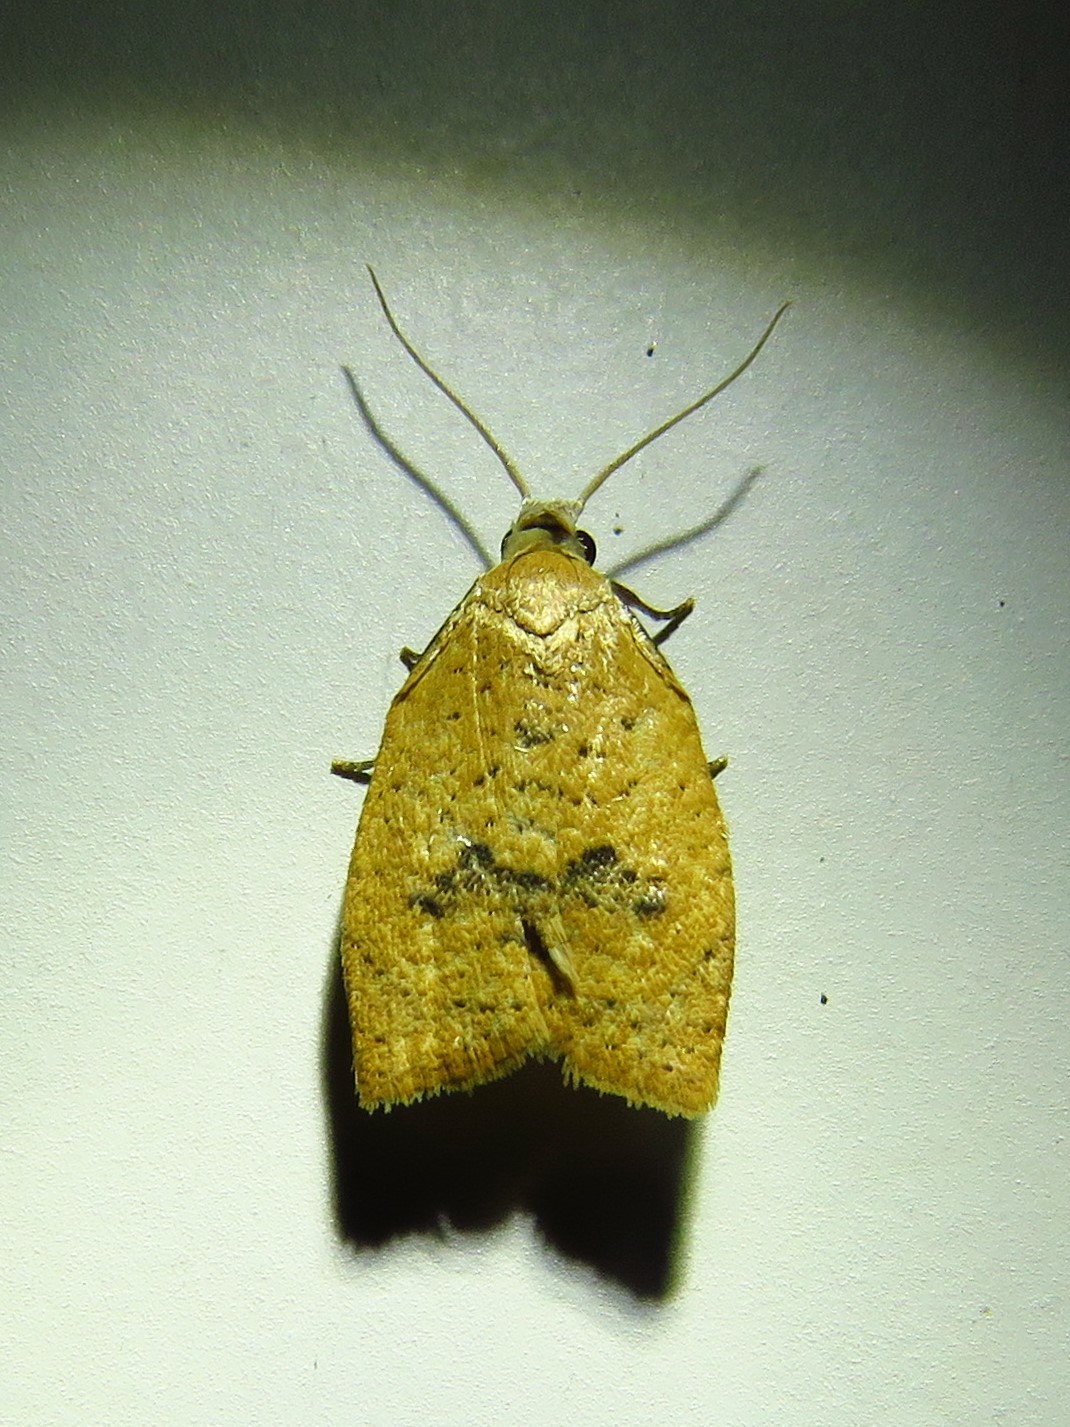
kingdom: Animalia
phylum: Arthropoda
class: Insecta
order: Lepidoptera
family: Tortricidae
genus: Sparganothoides
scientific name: Sparganothoides lentiginosana
